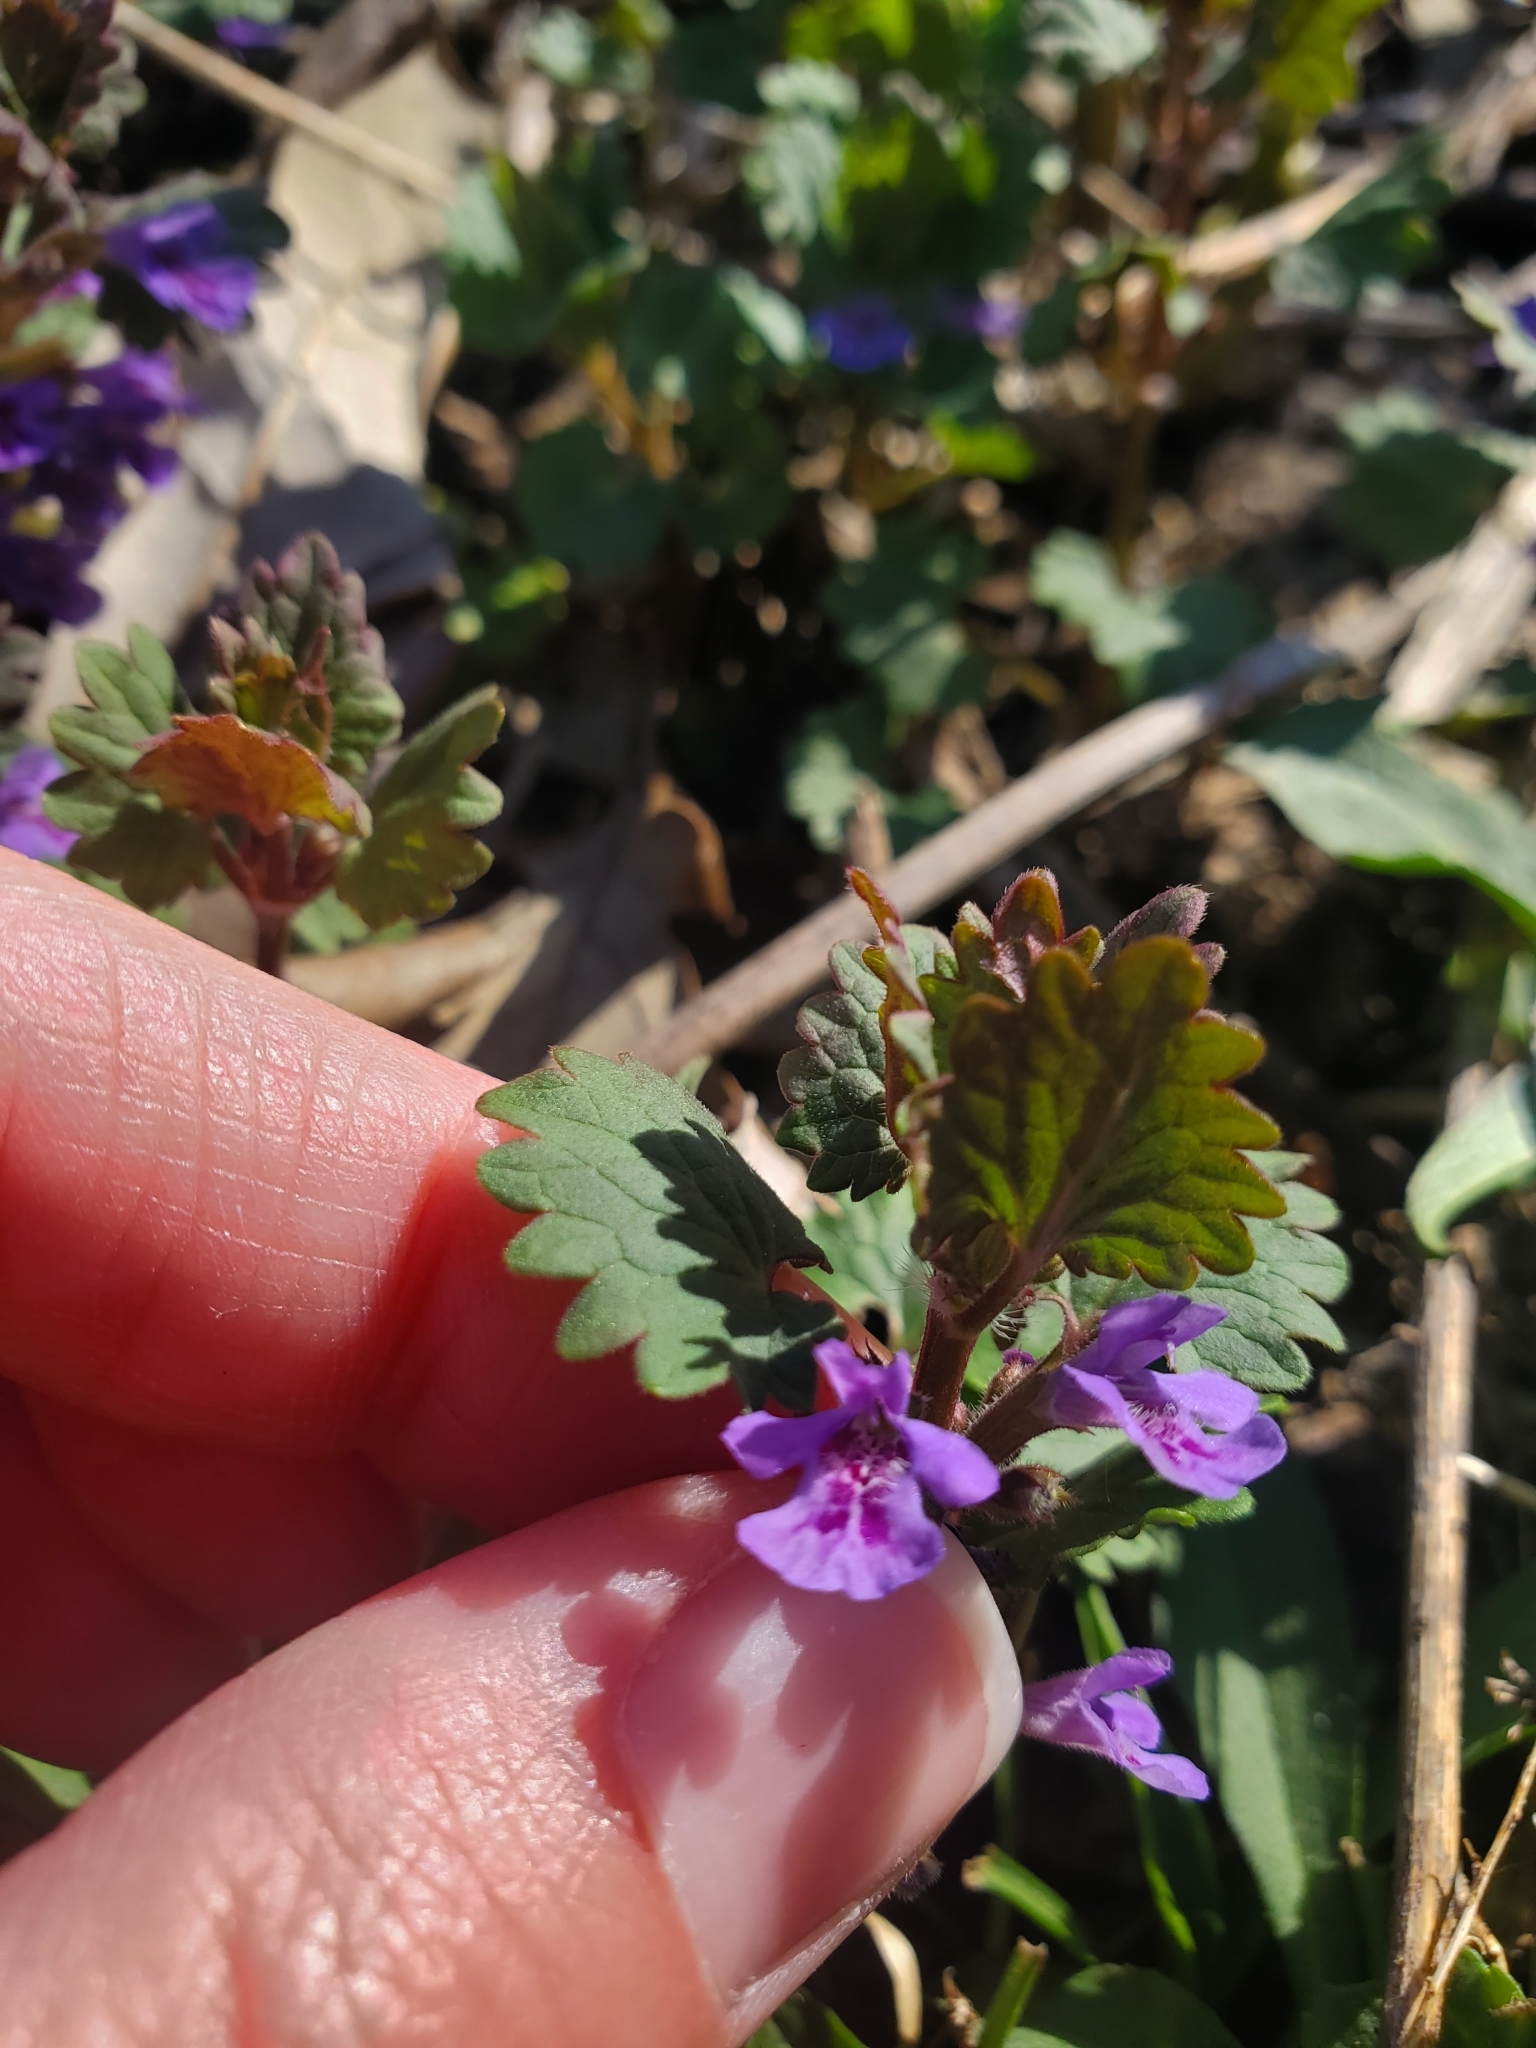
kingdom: Plantae
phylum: Tracheophyta
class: Magnoliopsida
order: Lamiales
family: Lamiaceae
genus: Glechoma
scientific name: Glechoma hederacea
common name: Ground ivy
